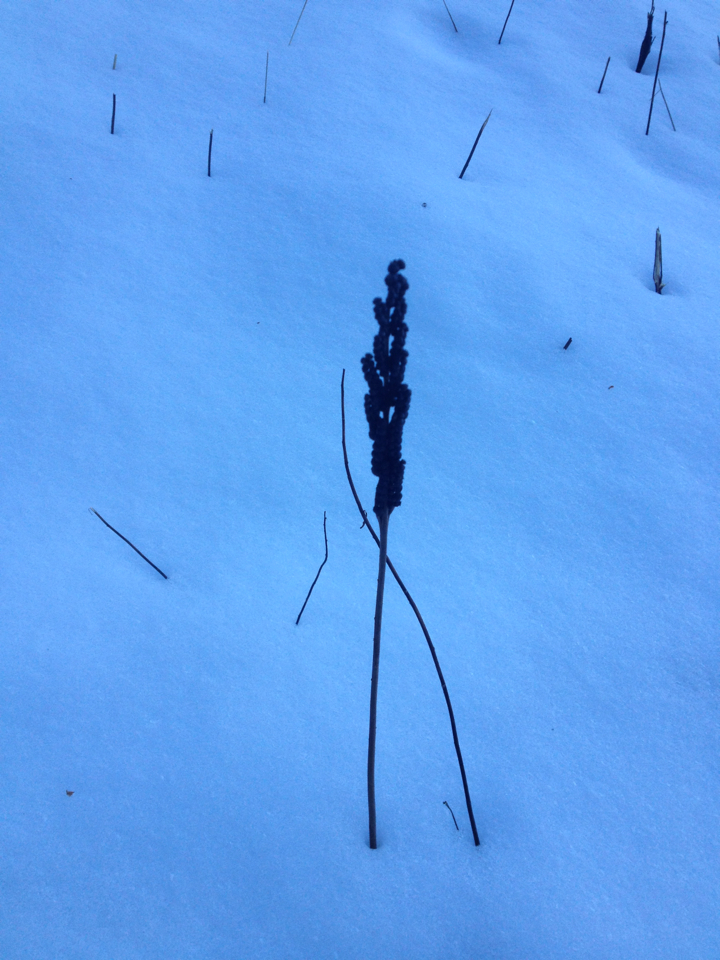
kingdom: Plantae
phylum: Tracheophyta
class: Polypodiopsida
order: Polypodiales
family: Onocleaceae
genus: Onoclea
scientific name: Onoclea sensibilis
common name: Sensitive fern
